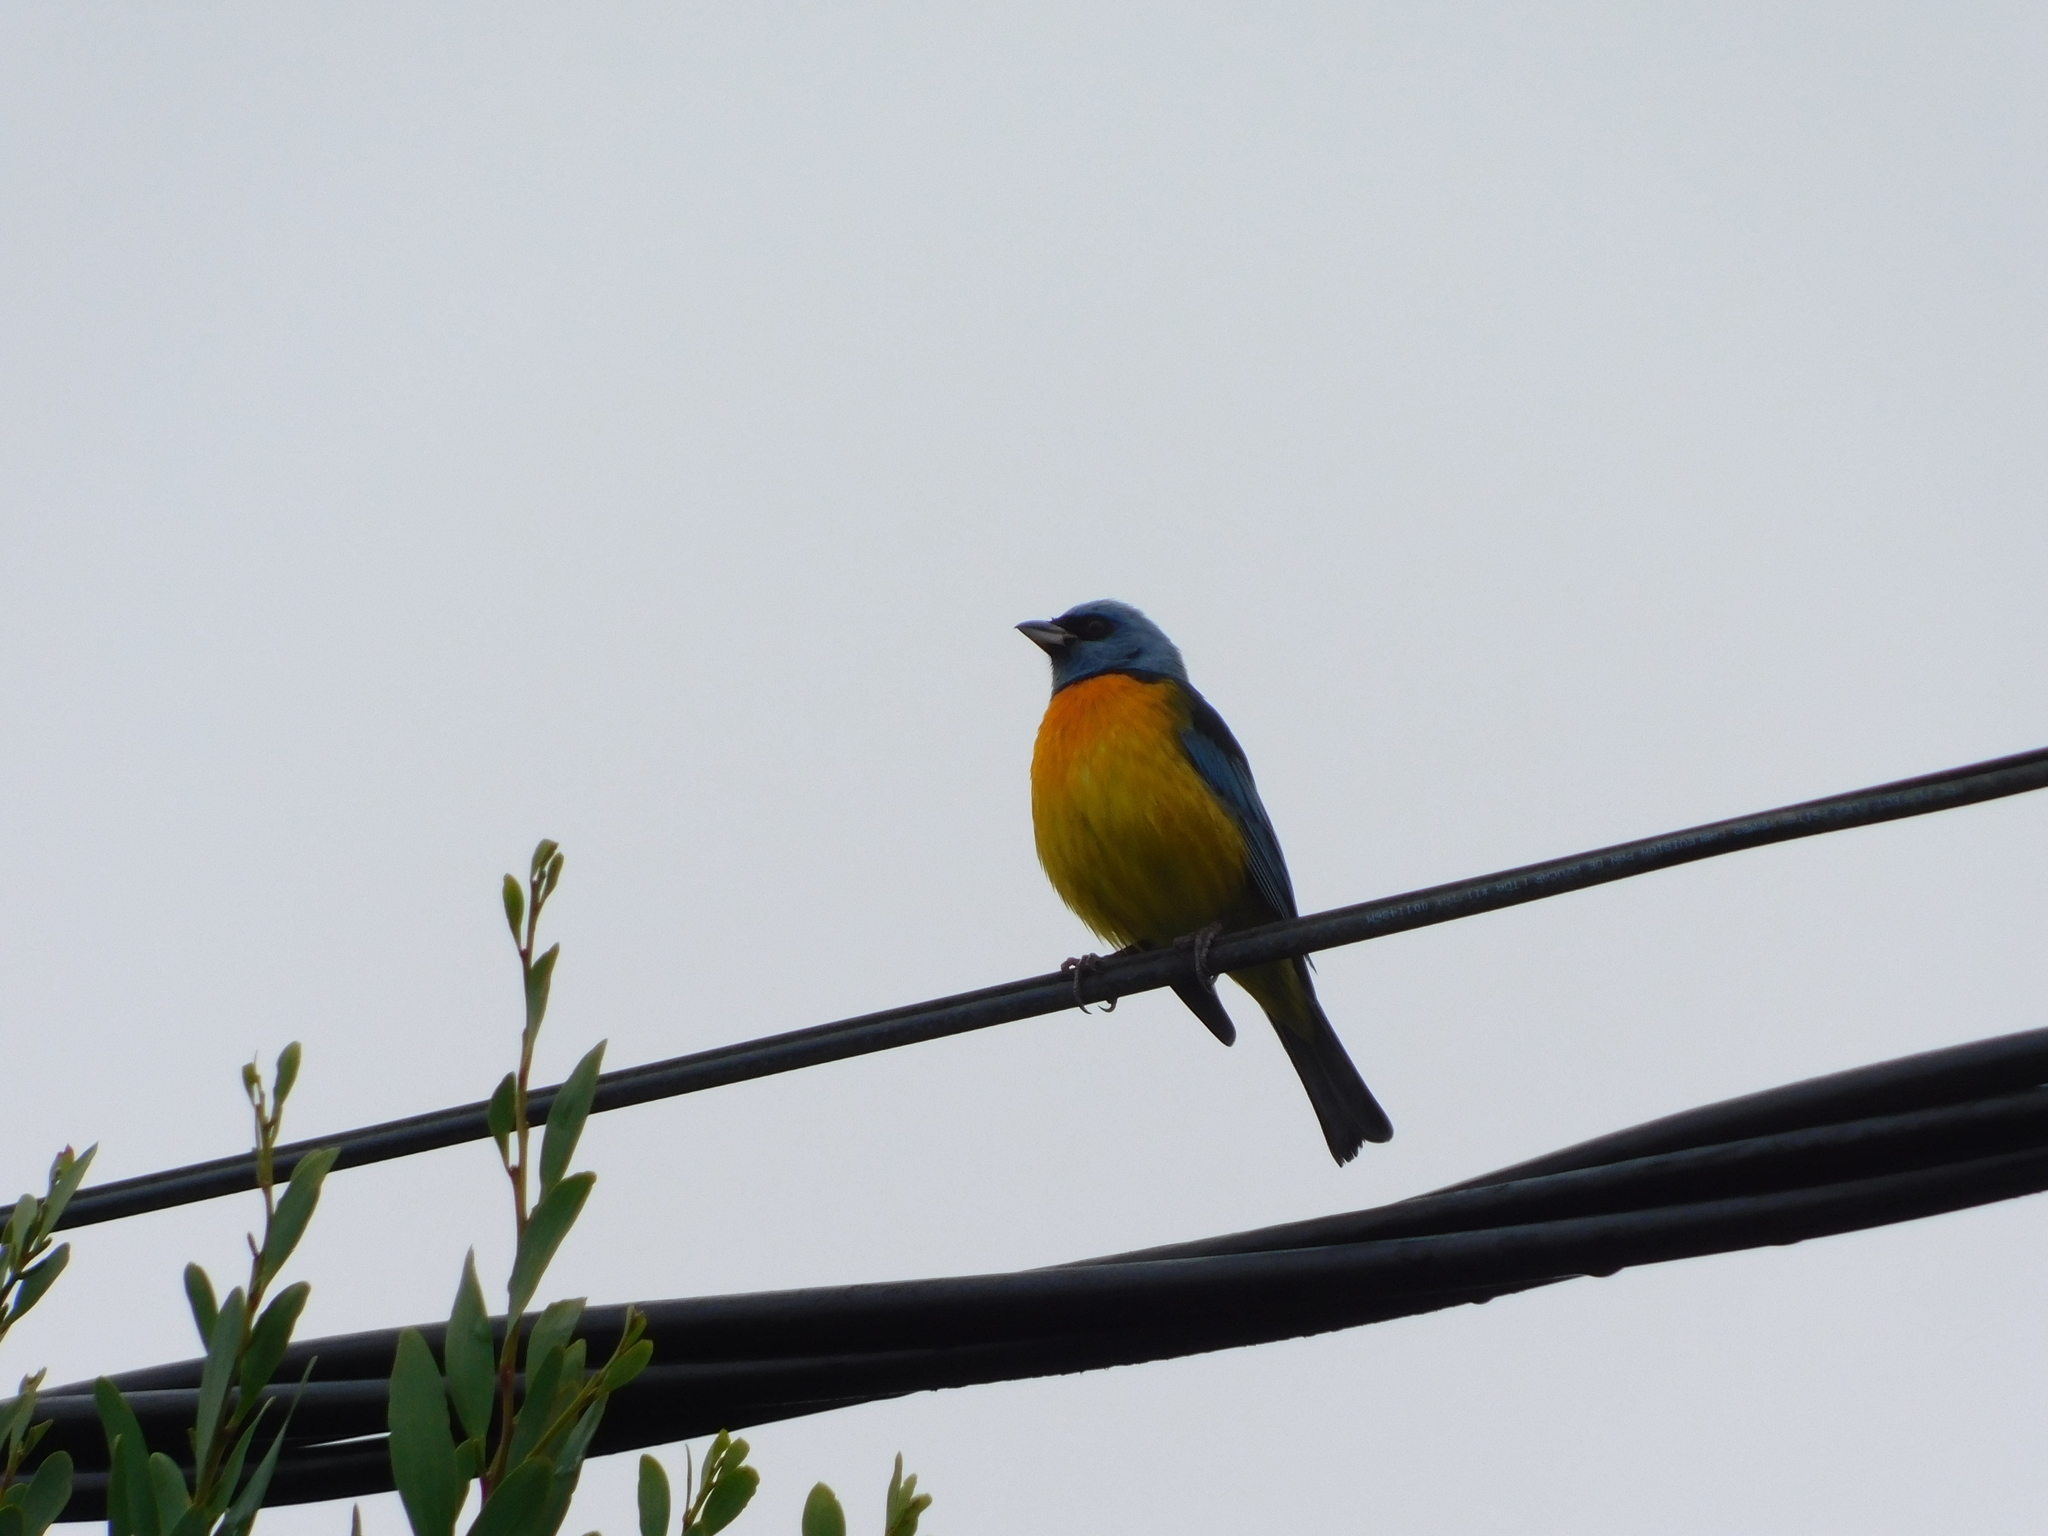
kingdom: Animalia
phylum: Chordata
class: Aves
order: Passeriformes
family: Thraupidae
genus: Rauenia
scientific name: Rauenia bonariensis
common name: Blue-and-yellow tanager
